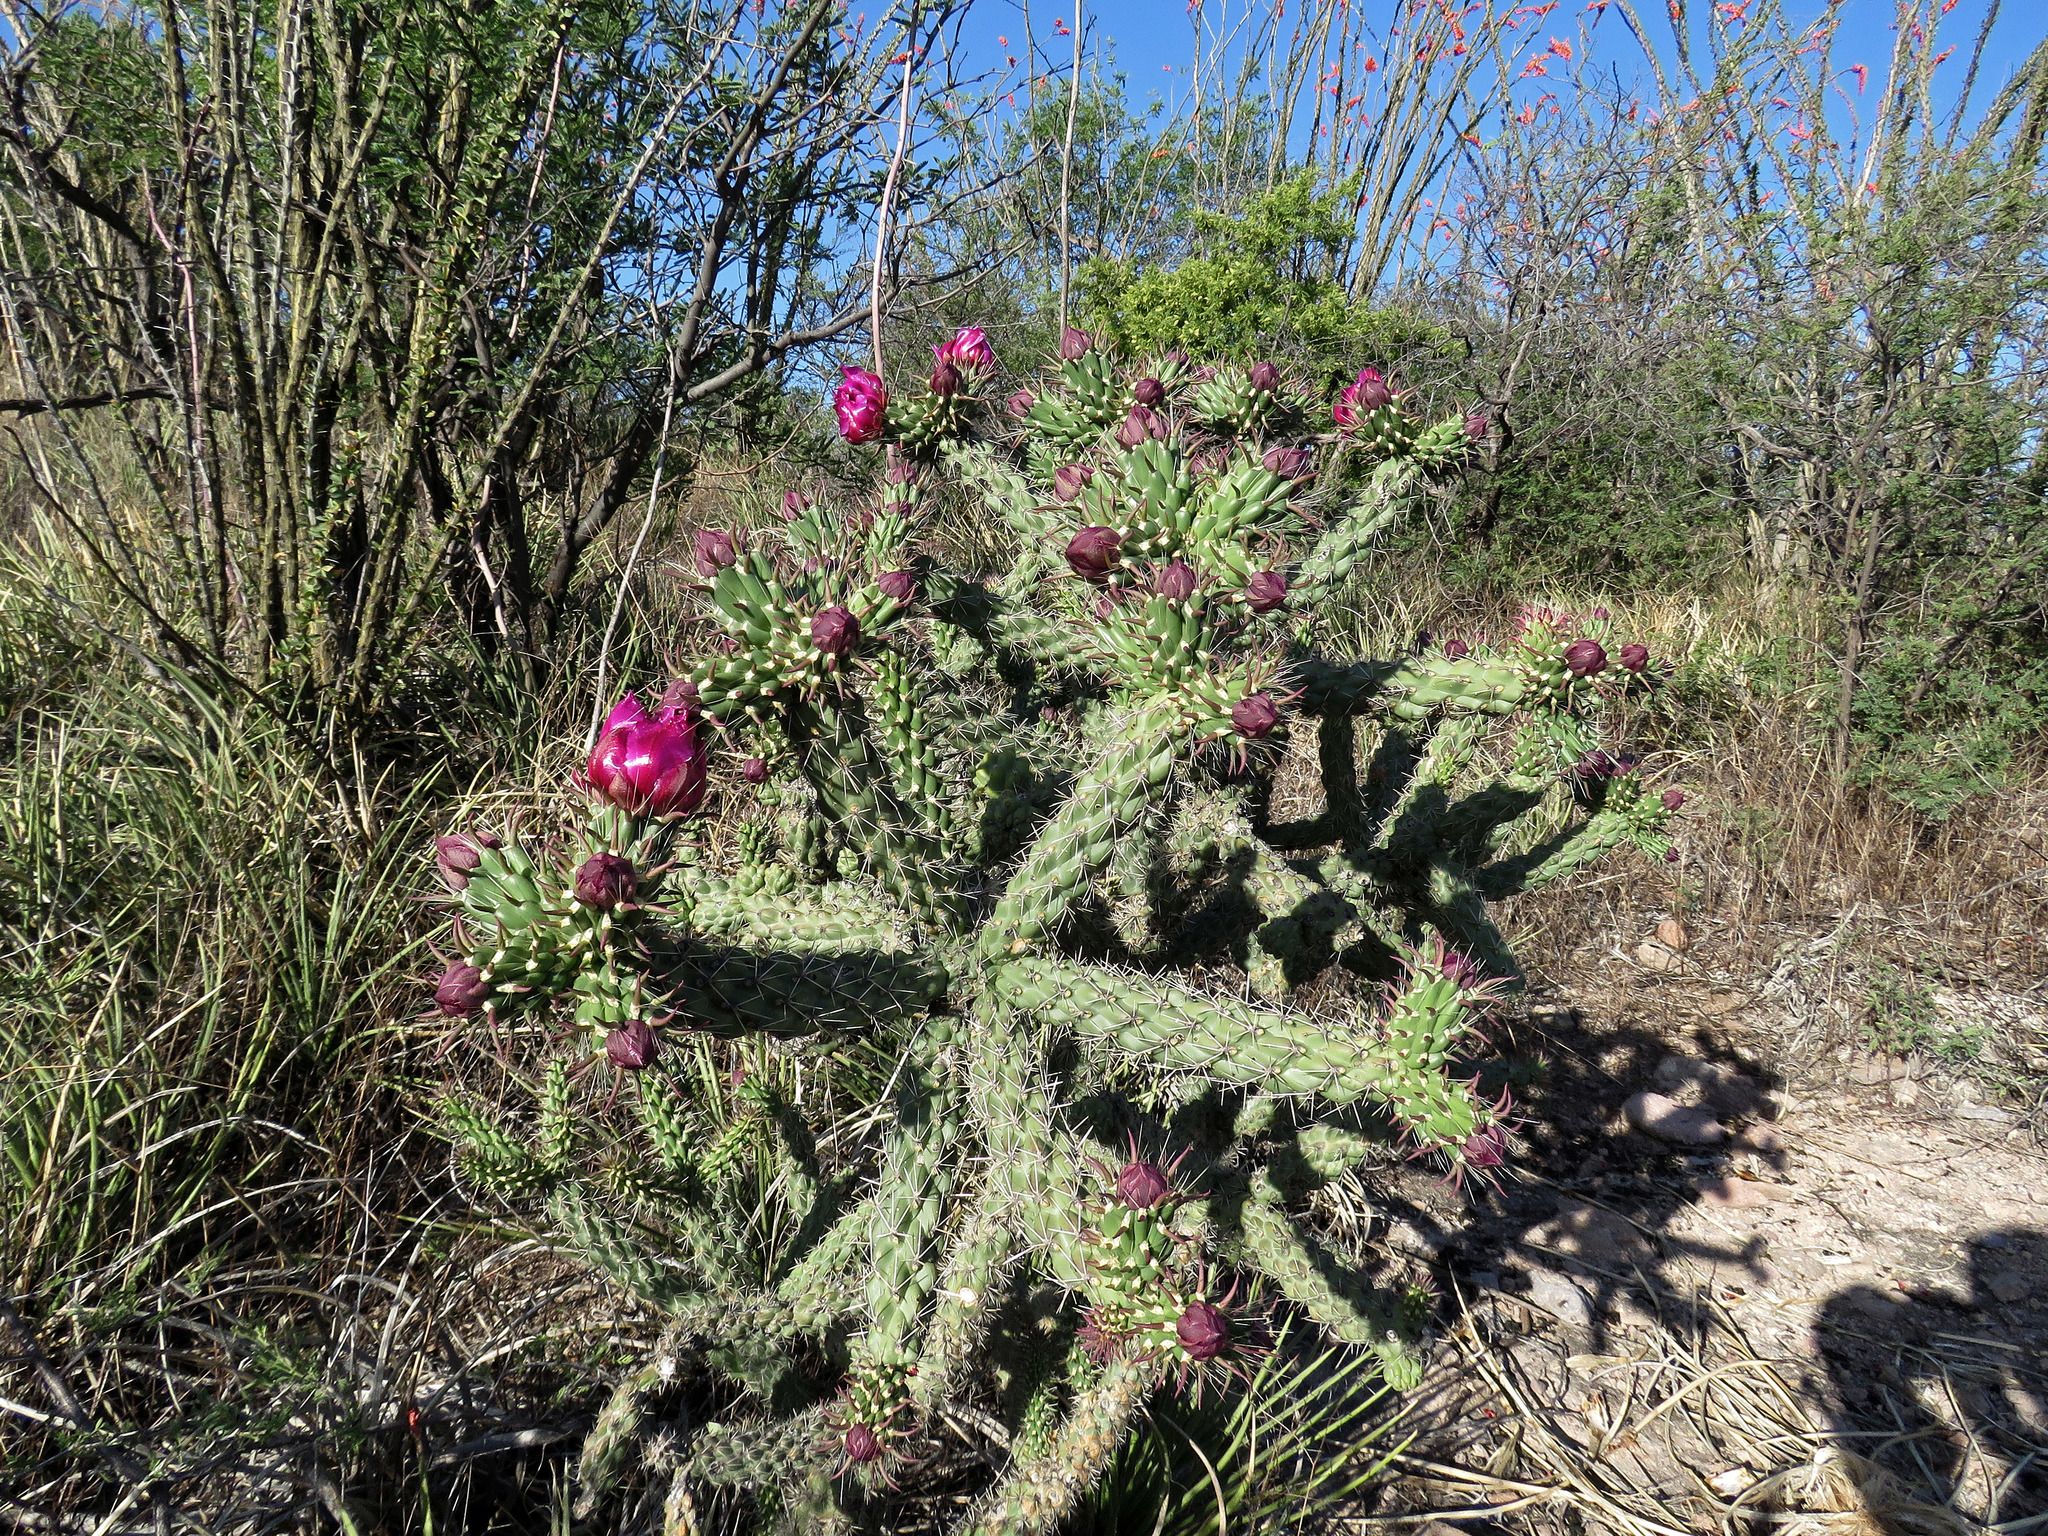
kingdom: Plantae
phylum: Tracheophyta
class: Magnoliopsida
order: Caryophyllales
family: Cactaceae
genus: Cylindropuntia
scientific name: Cylindropuntia imbricata
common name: Candelabrum cactus
